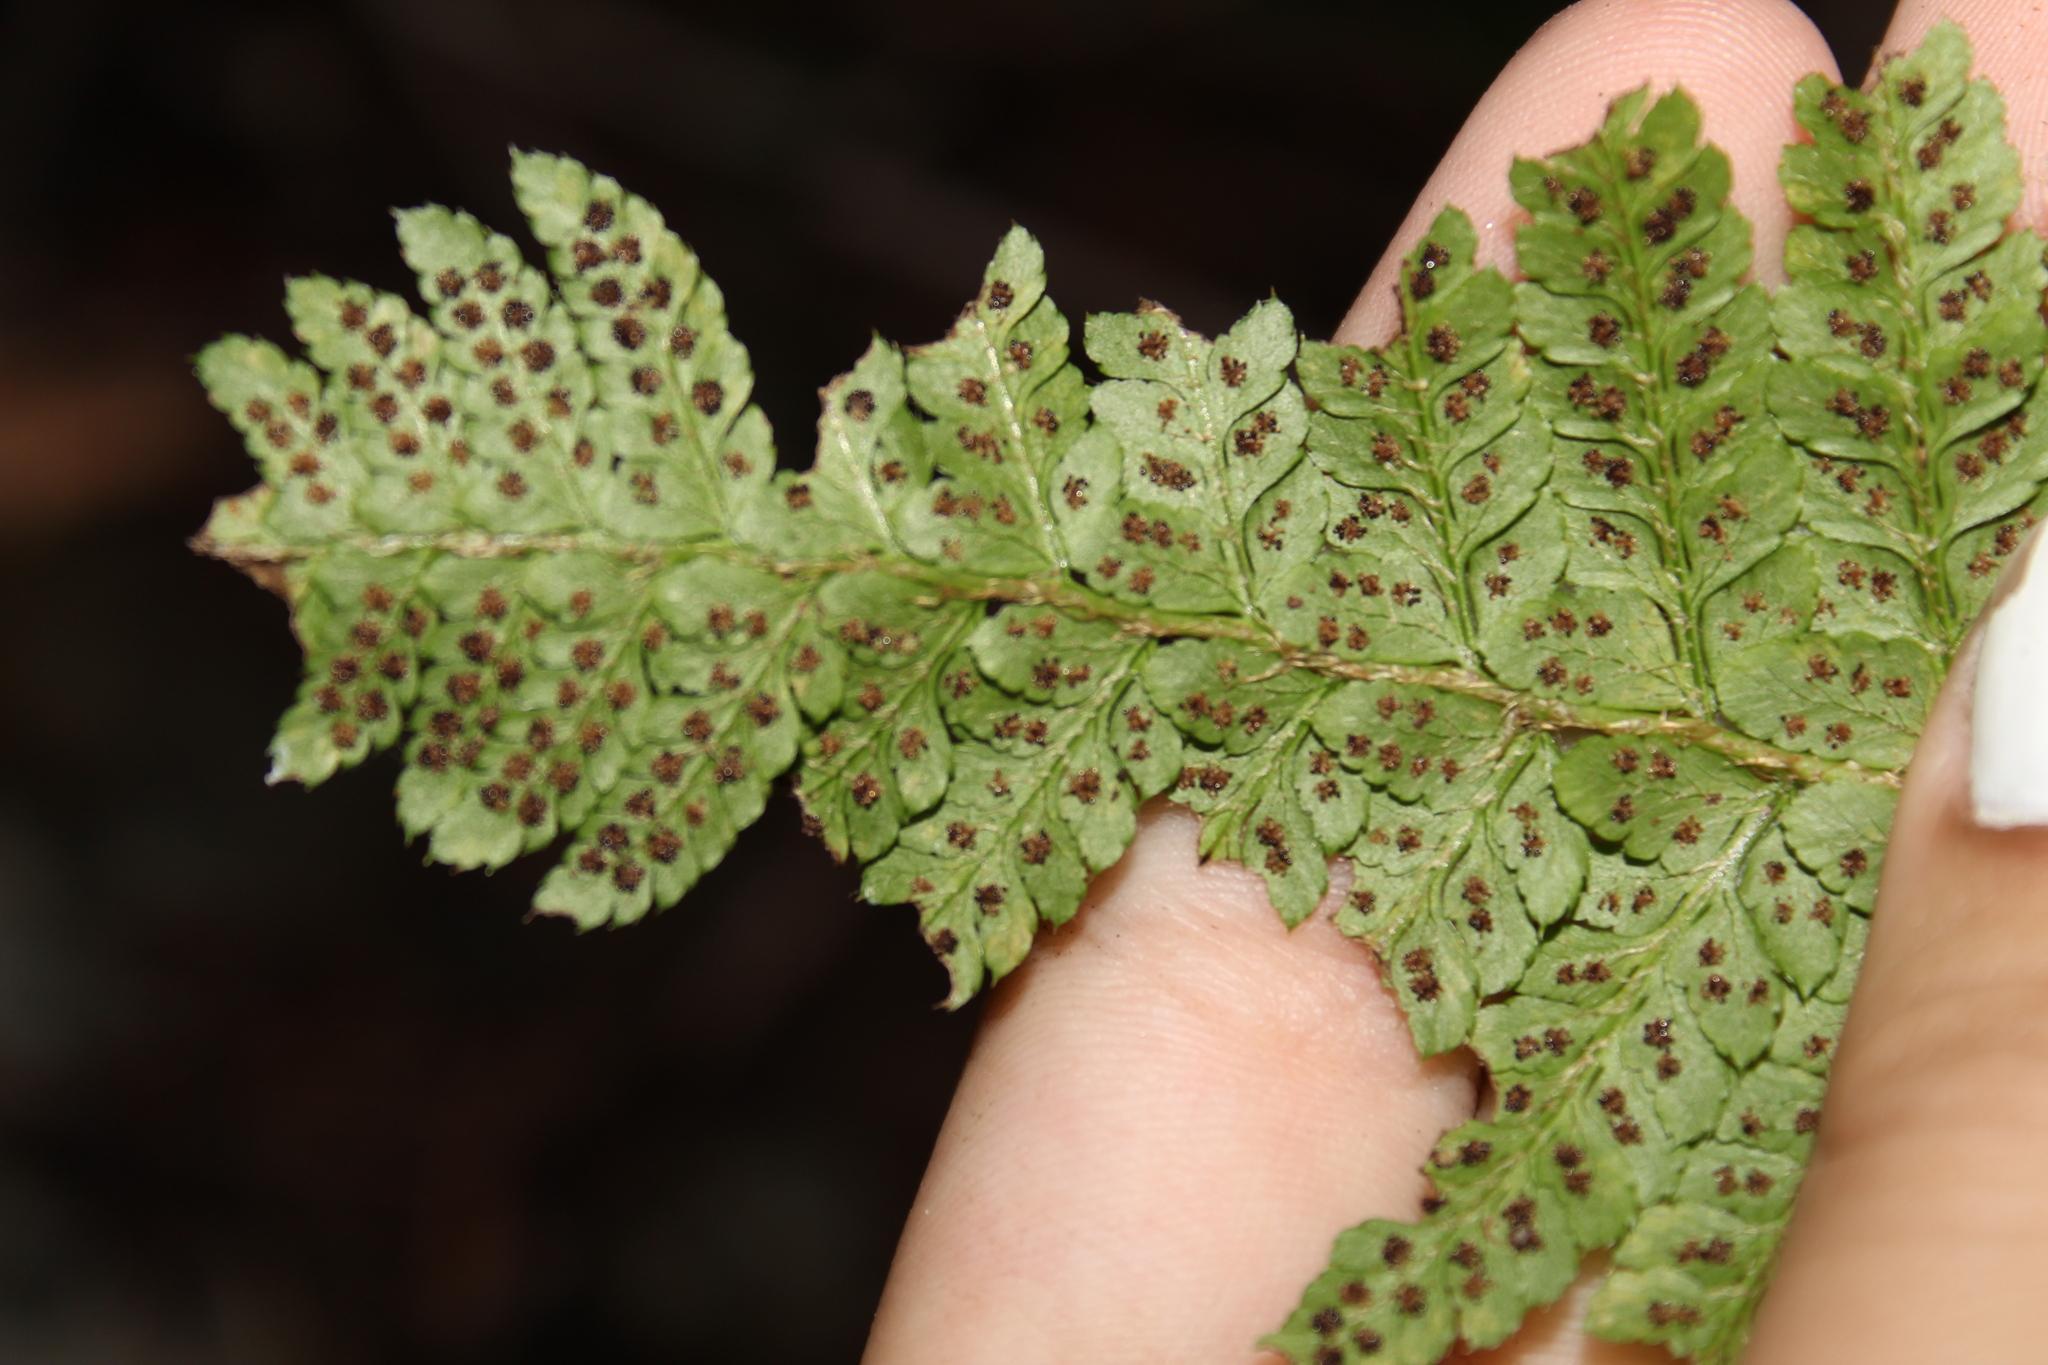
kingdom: Plantae
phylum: Tracheophyta
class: Polypodiopsida
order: Polypodiales
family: Dryopteridaceae
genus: Polystichum
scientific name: Polystichum braunii
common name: Braun's holly fern
